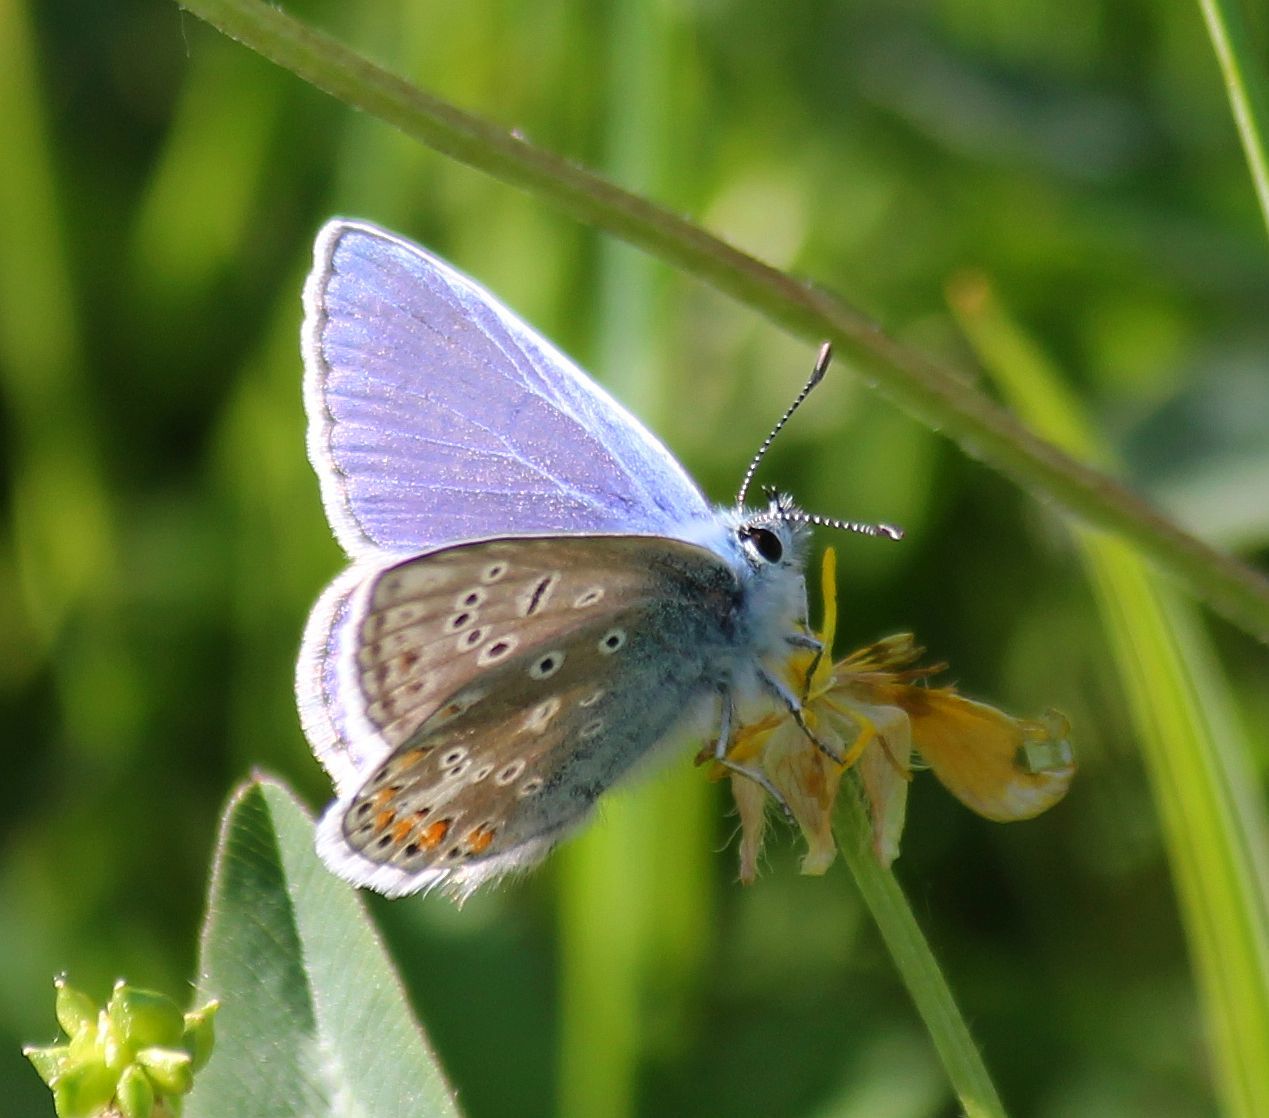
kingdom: Animalia
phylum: Arthropoda
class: Insecta
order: Lepidoptera
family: Lycaenidae
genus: Polyommatus
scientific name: Polyommatus icarus
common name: Common blue
